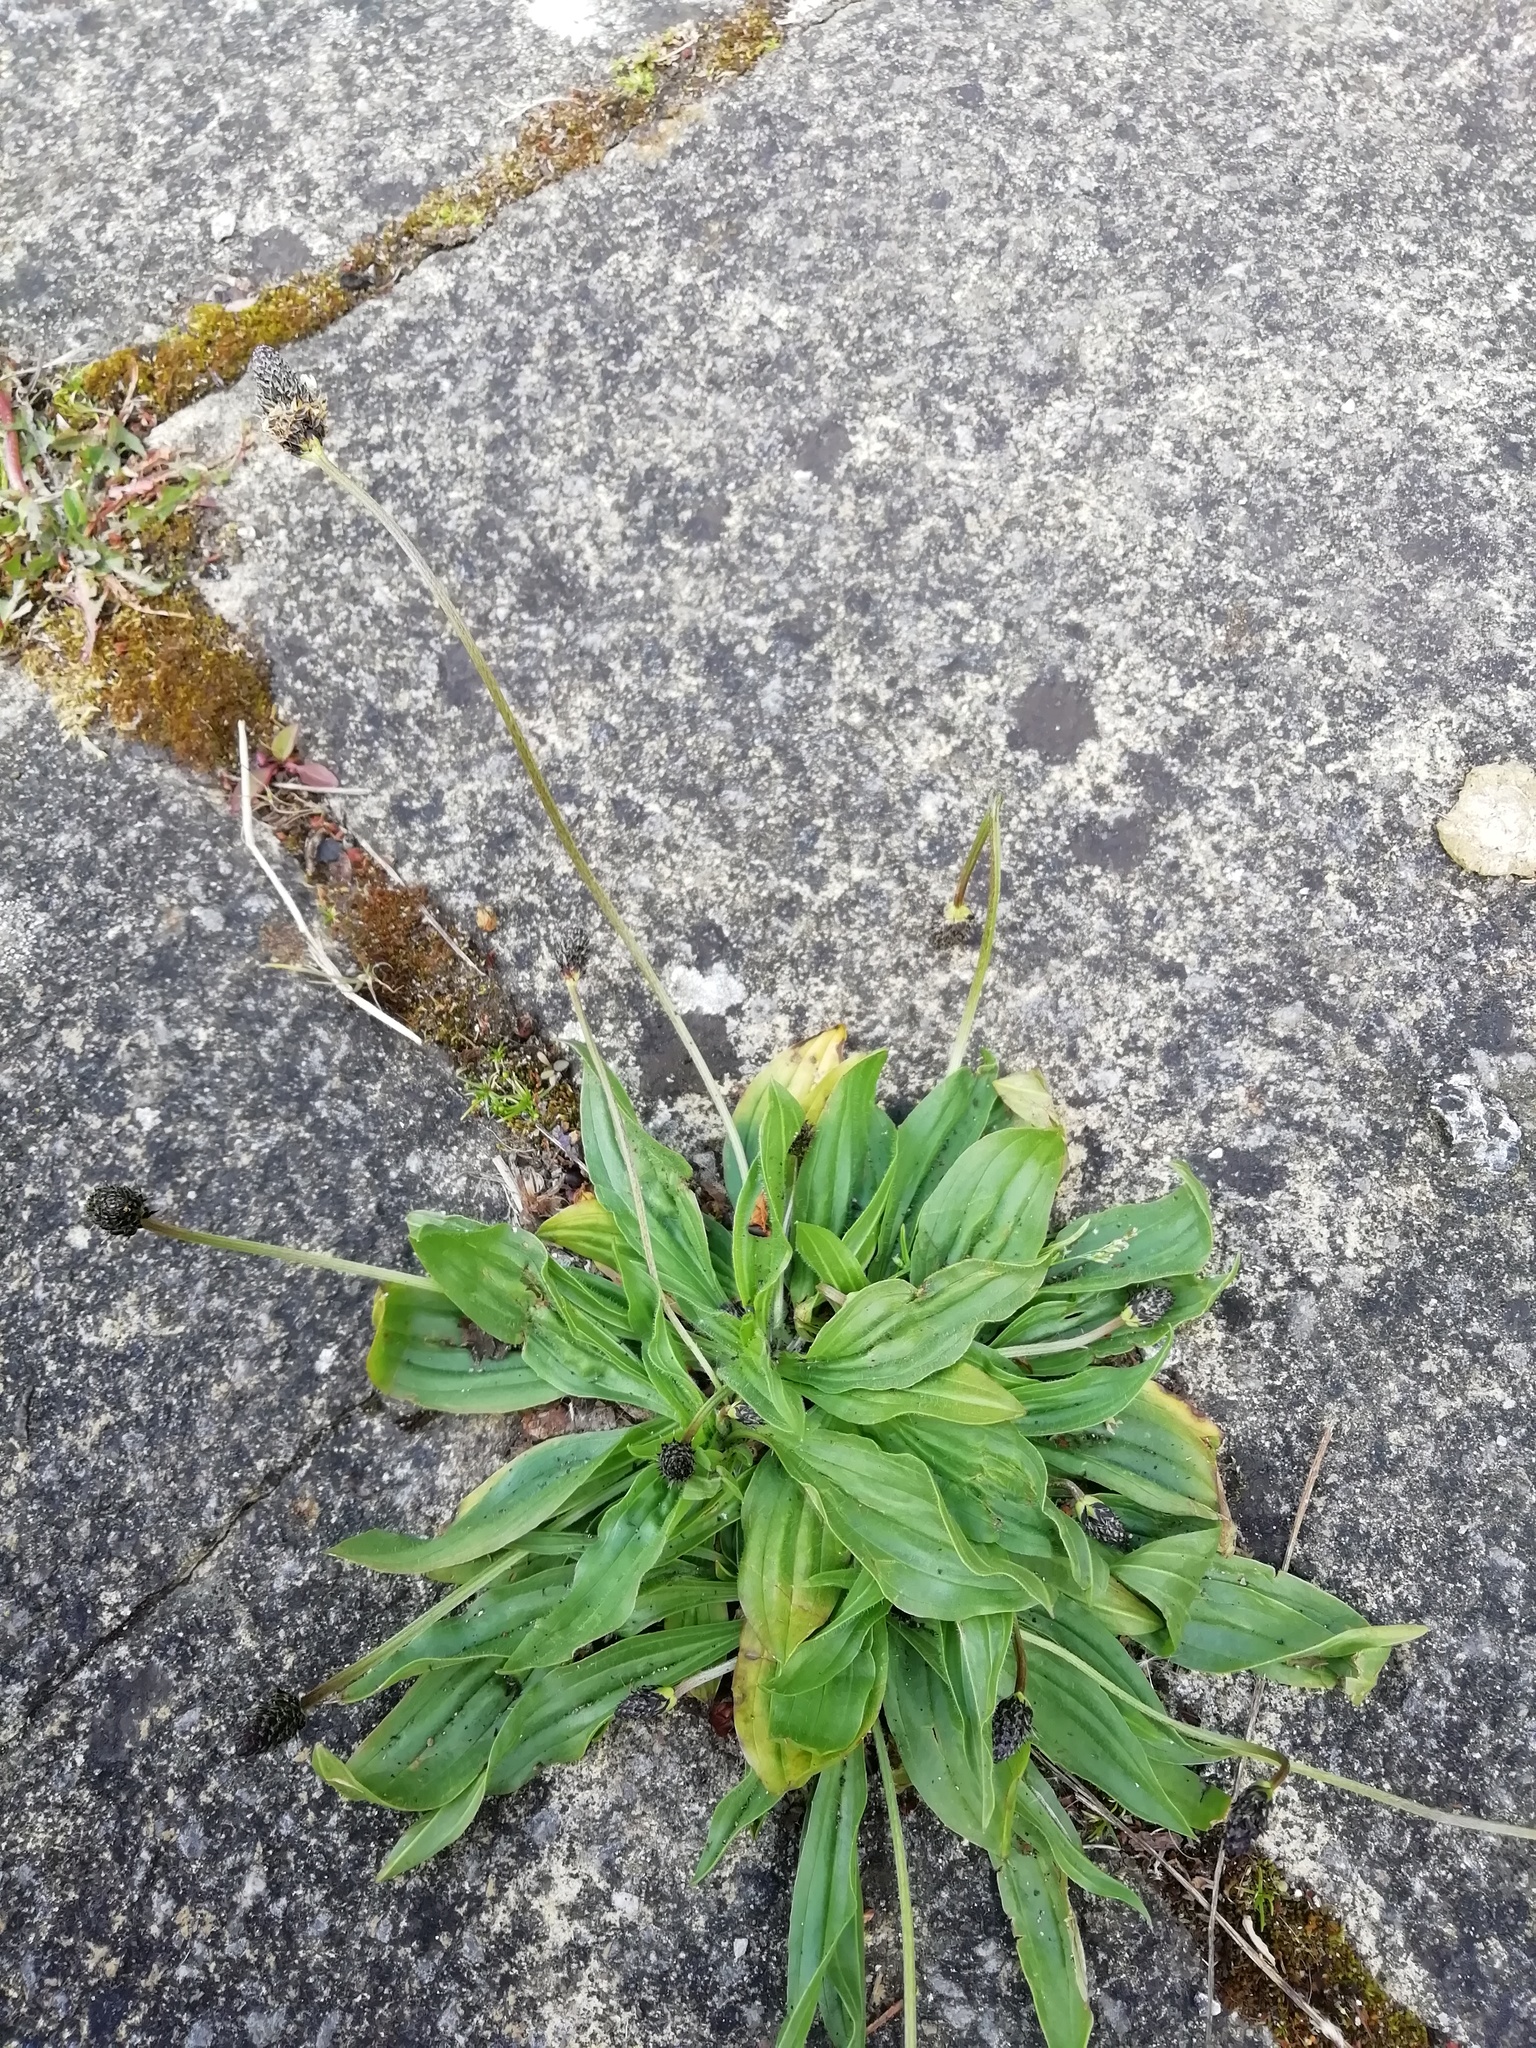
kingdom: Plantae
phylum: Tracheophyta
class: Magnoliopsida
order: Lamiales
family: Plantaginaceae
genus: Plantago
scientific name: Plantago lanceolata
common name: Ribwort plantain
